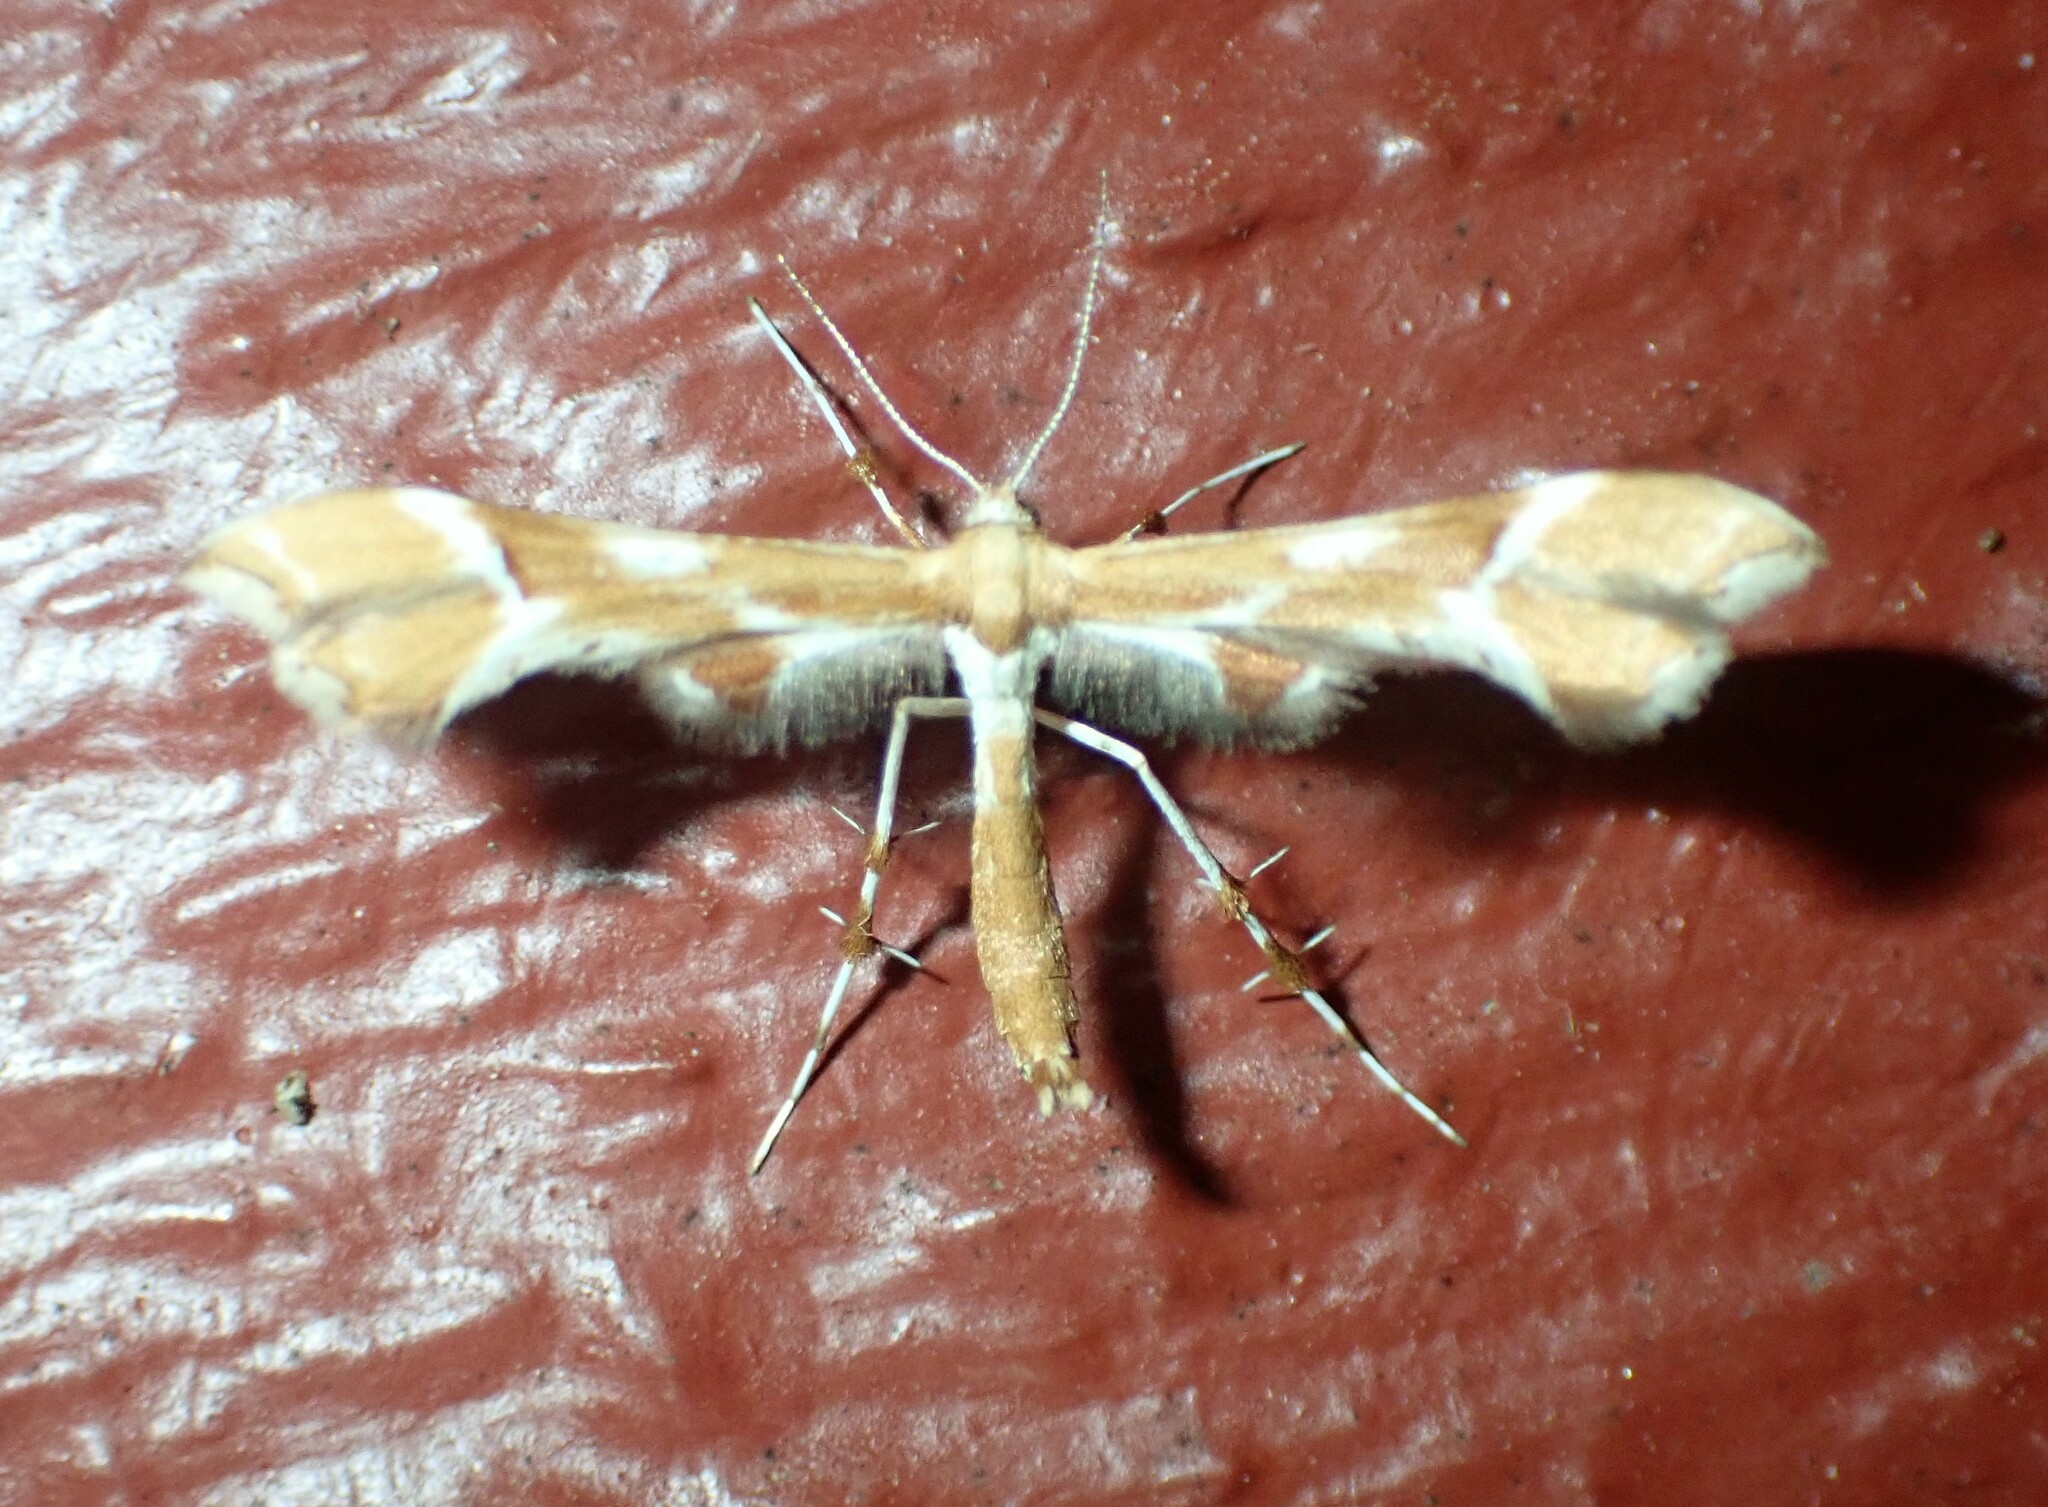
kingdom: Animalia
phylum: Arthropoda
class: Insecta
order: Lepidoptera
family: Pterophoridae
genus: Cnaemidophorus
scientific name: Cnaemidophorus rhododactyla
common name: Rose plume
